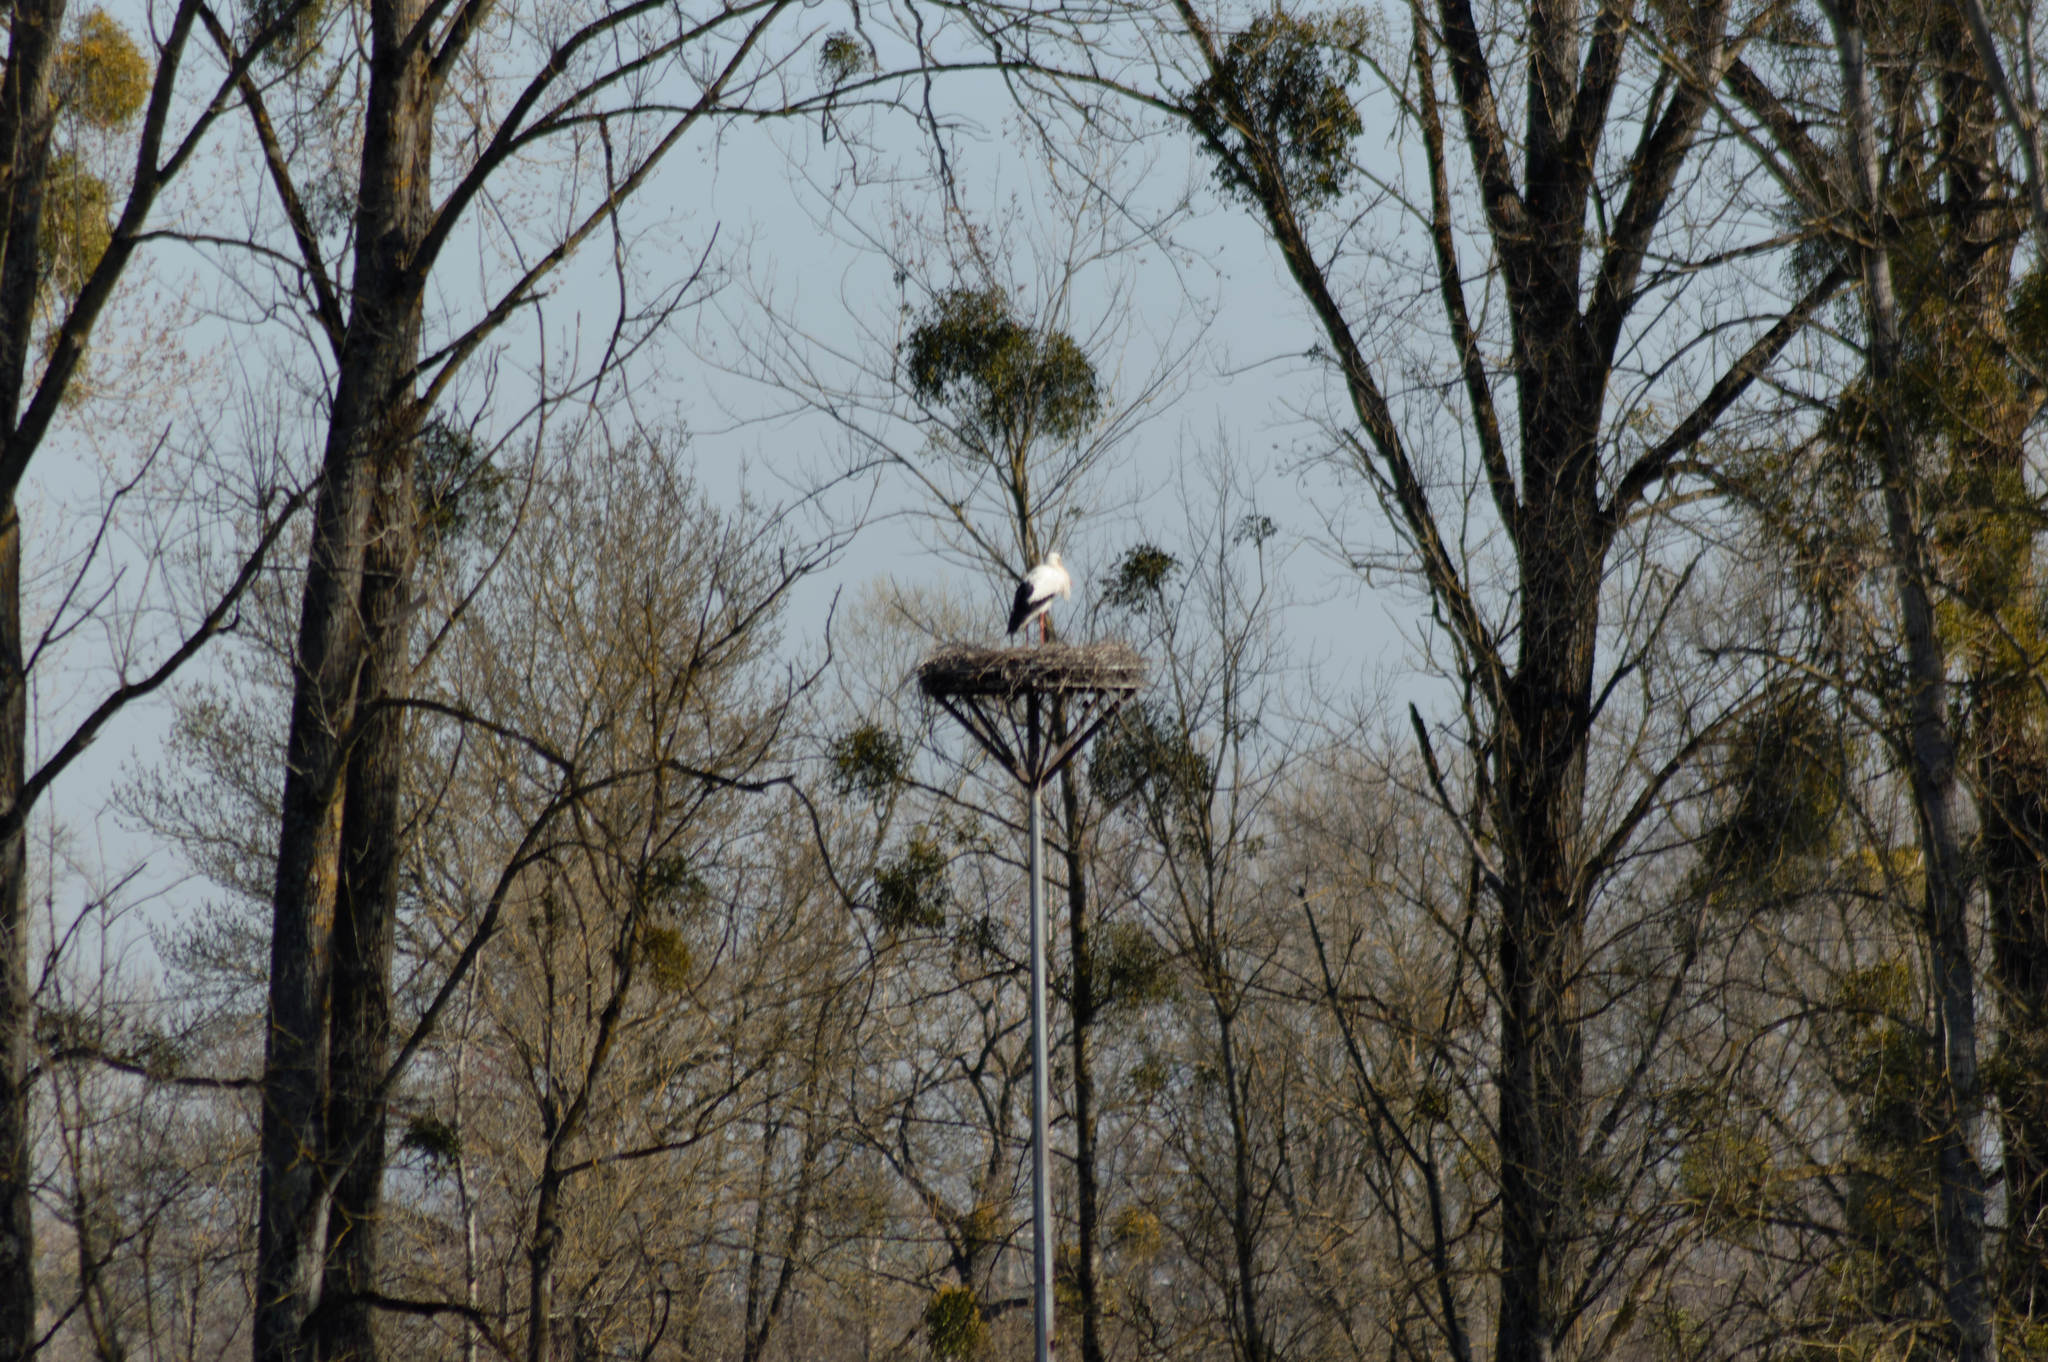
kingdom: Animalia
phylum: Chordata
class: Aves
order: Ciconiiformes
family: Ciconiidae
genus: Ciconia
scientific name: Ciconia ciconia
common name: White stork
